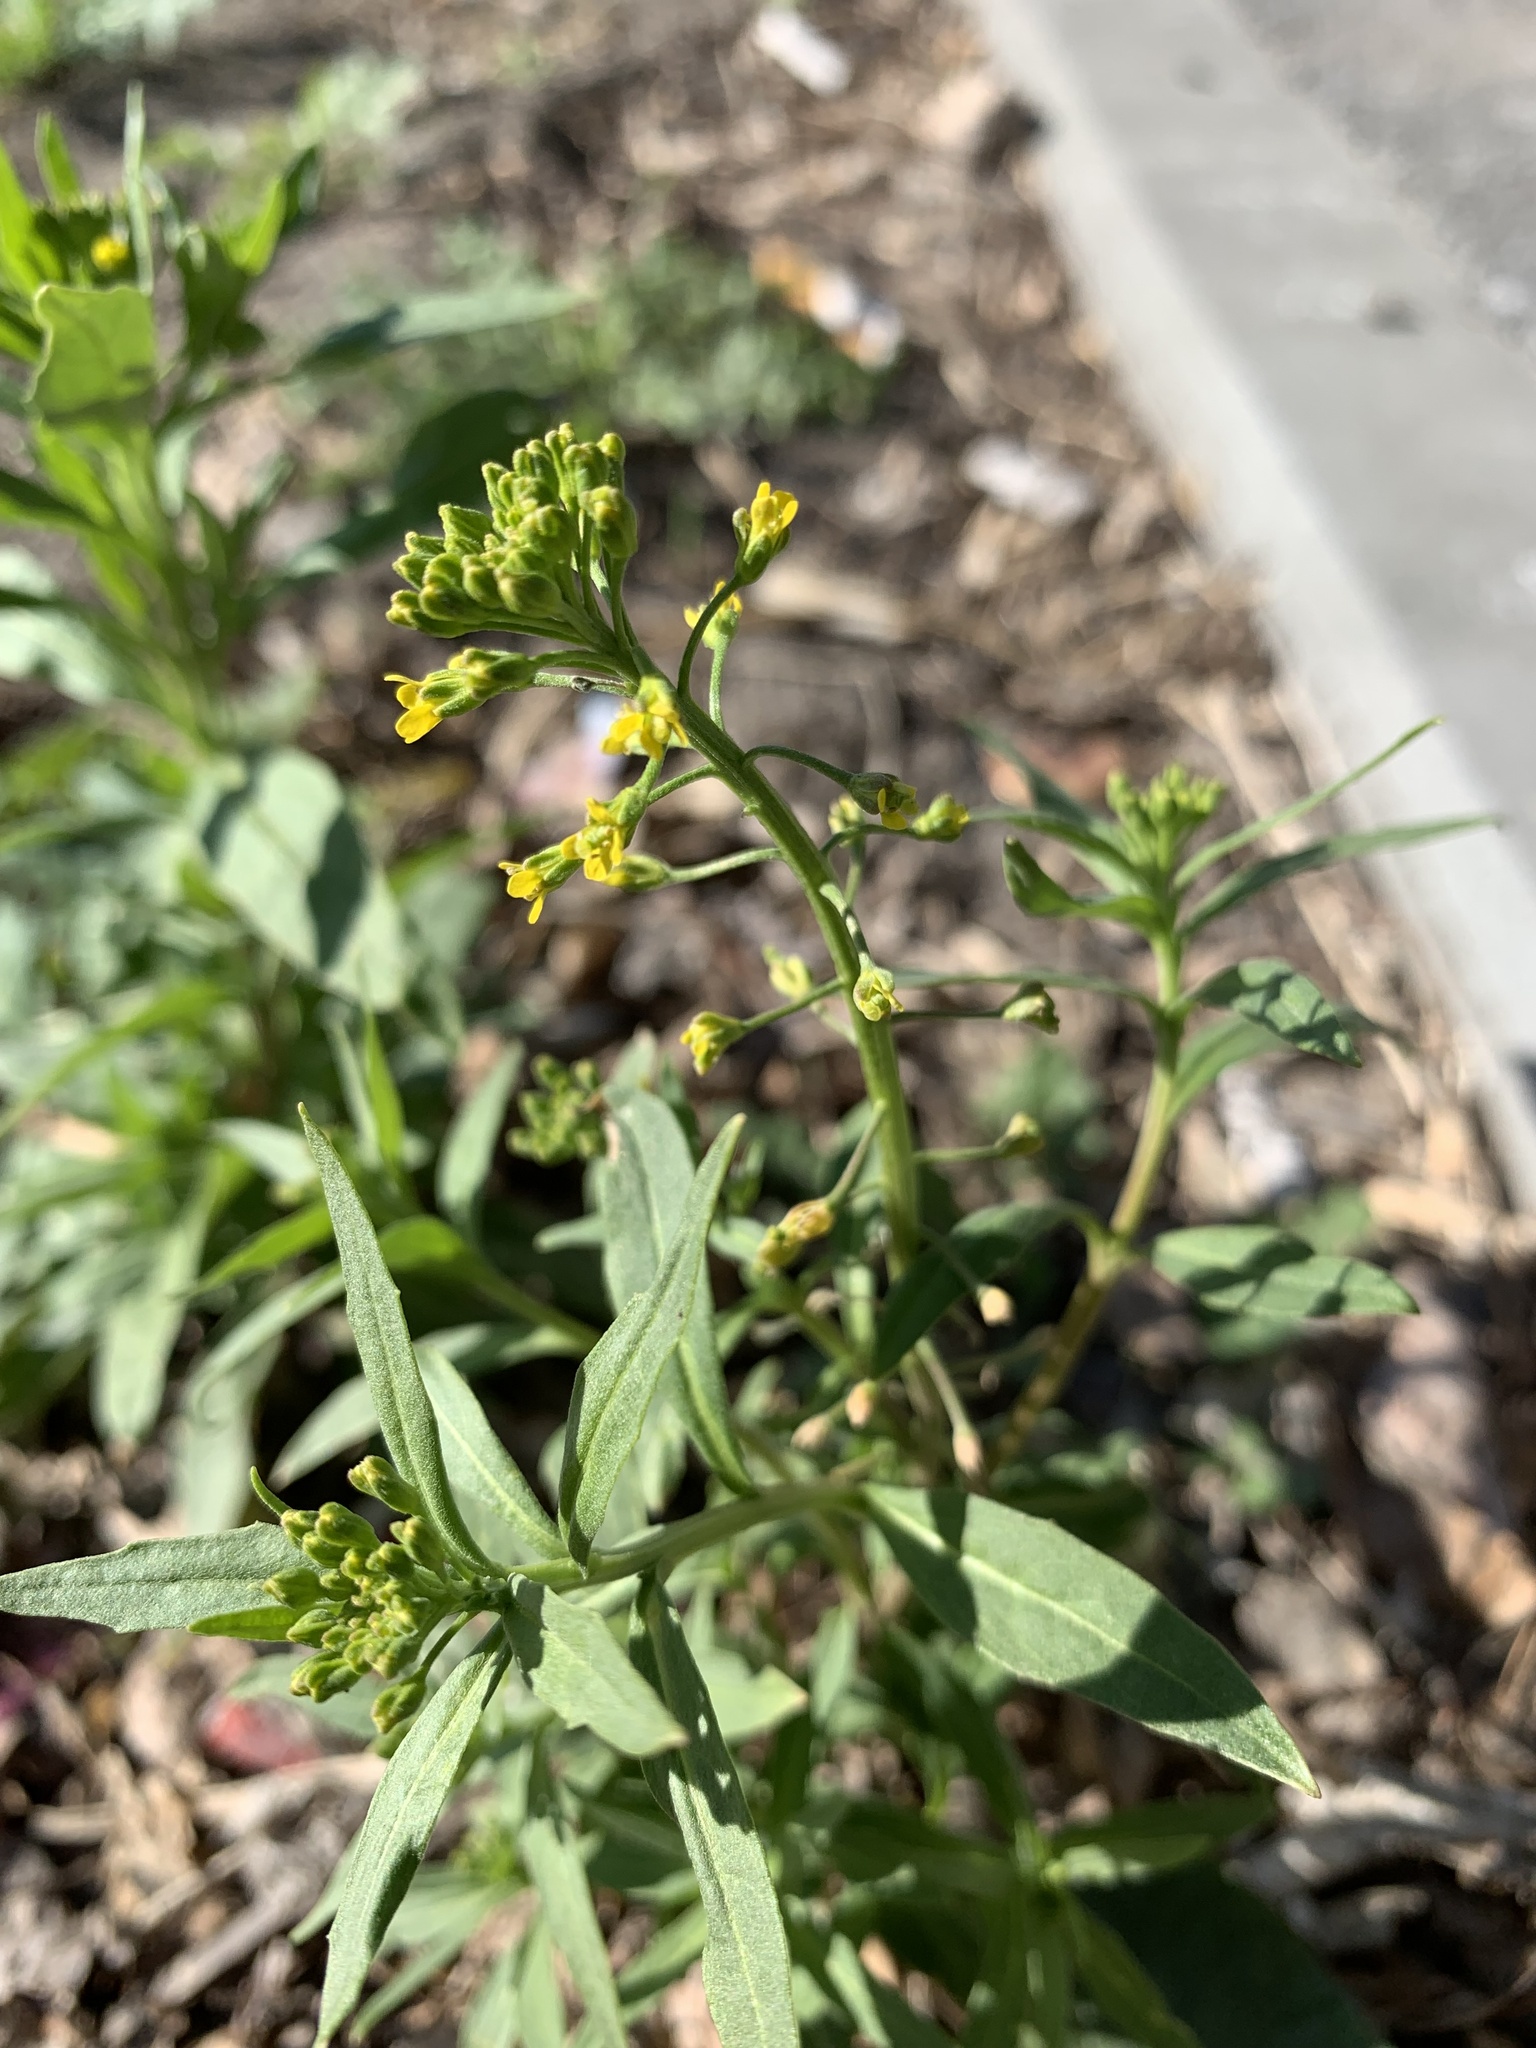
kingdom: Plantae
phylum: Tracheophyta
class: Magnoliopsida
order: Brassicales
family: Brassicaceae
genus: Erysimum
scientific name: Erysimum cheiranthoides
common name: Treacle mustard
